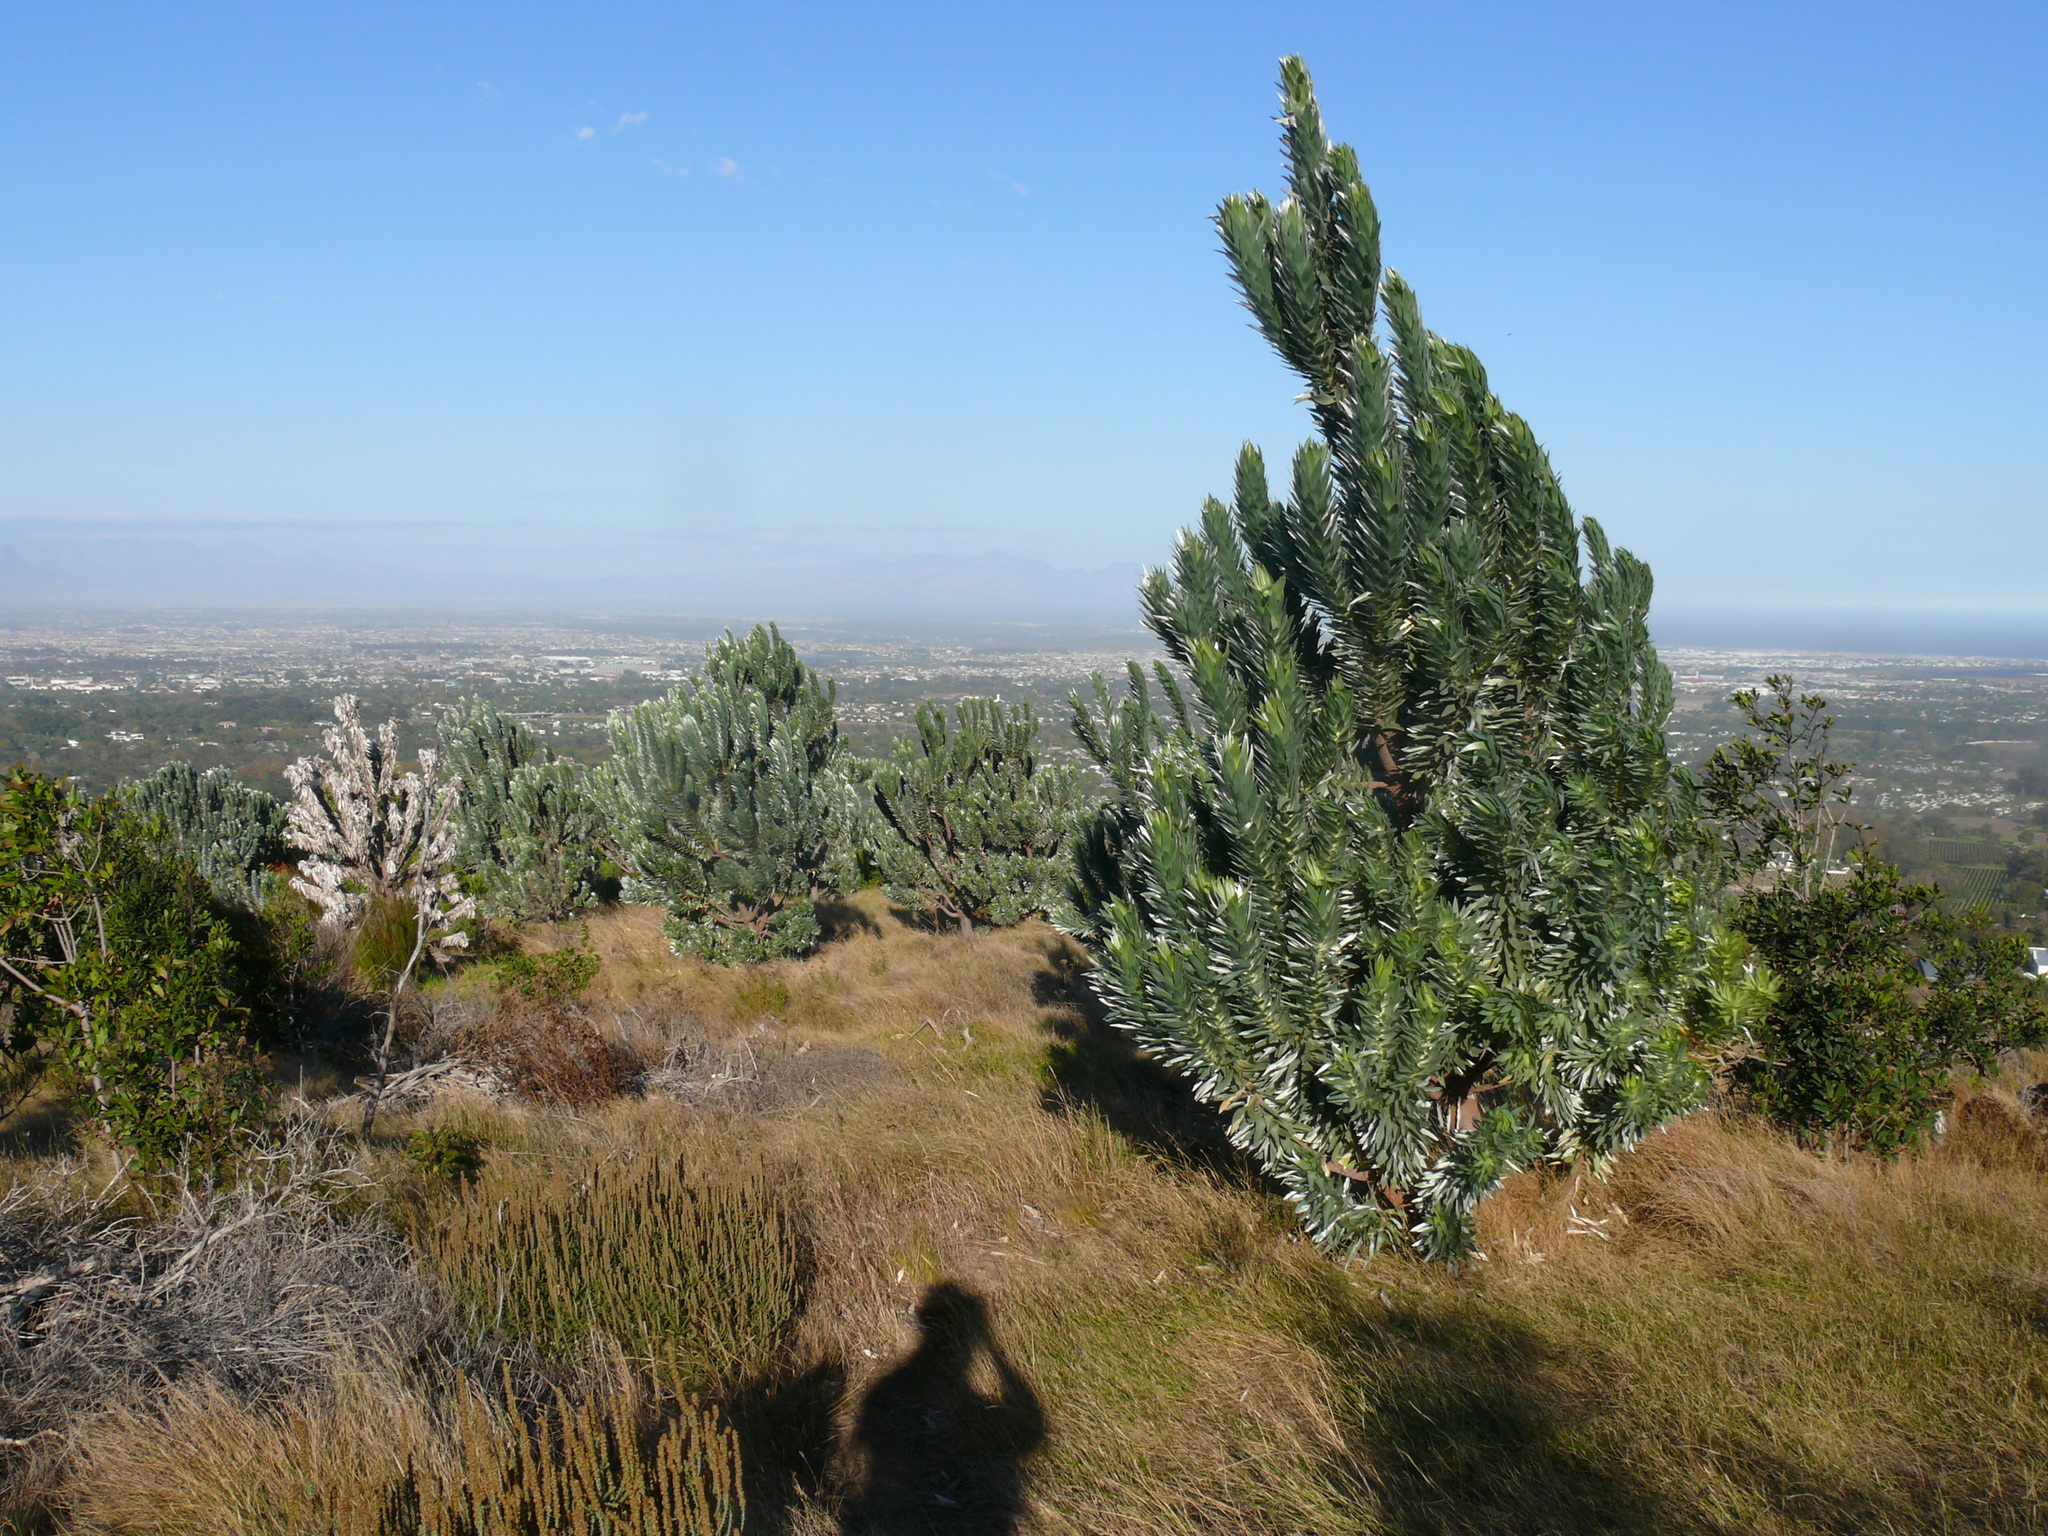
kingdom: Plantae
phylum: Tracheophyta
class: Magnoliopsida
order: Proteales
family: Proteaceae
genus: Leucadendron
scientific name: Leucadendron argenteum
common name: Cape silver tree
